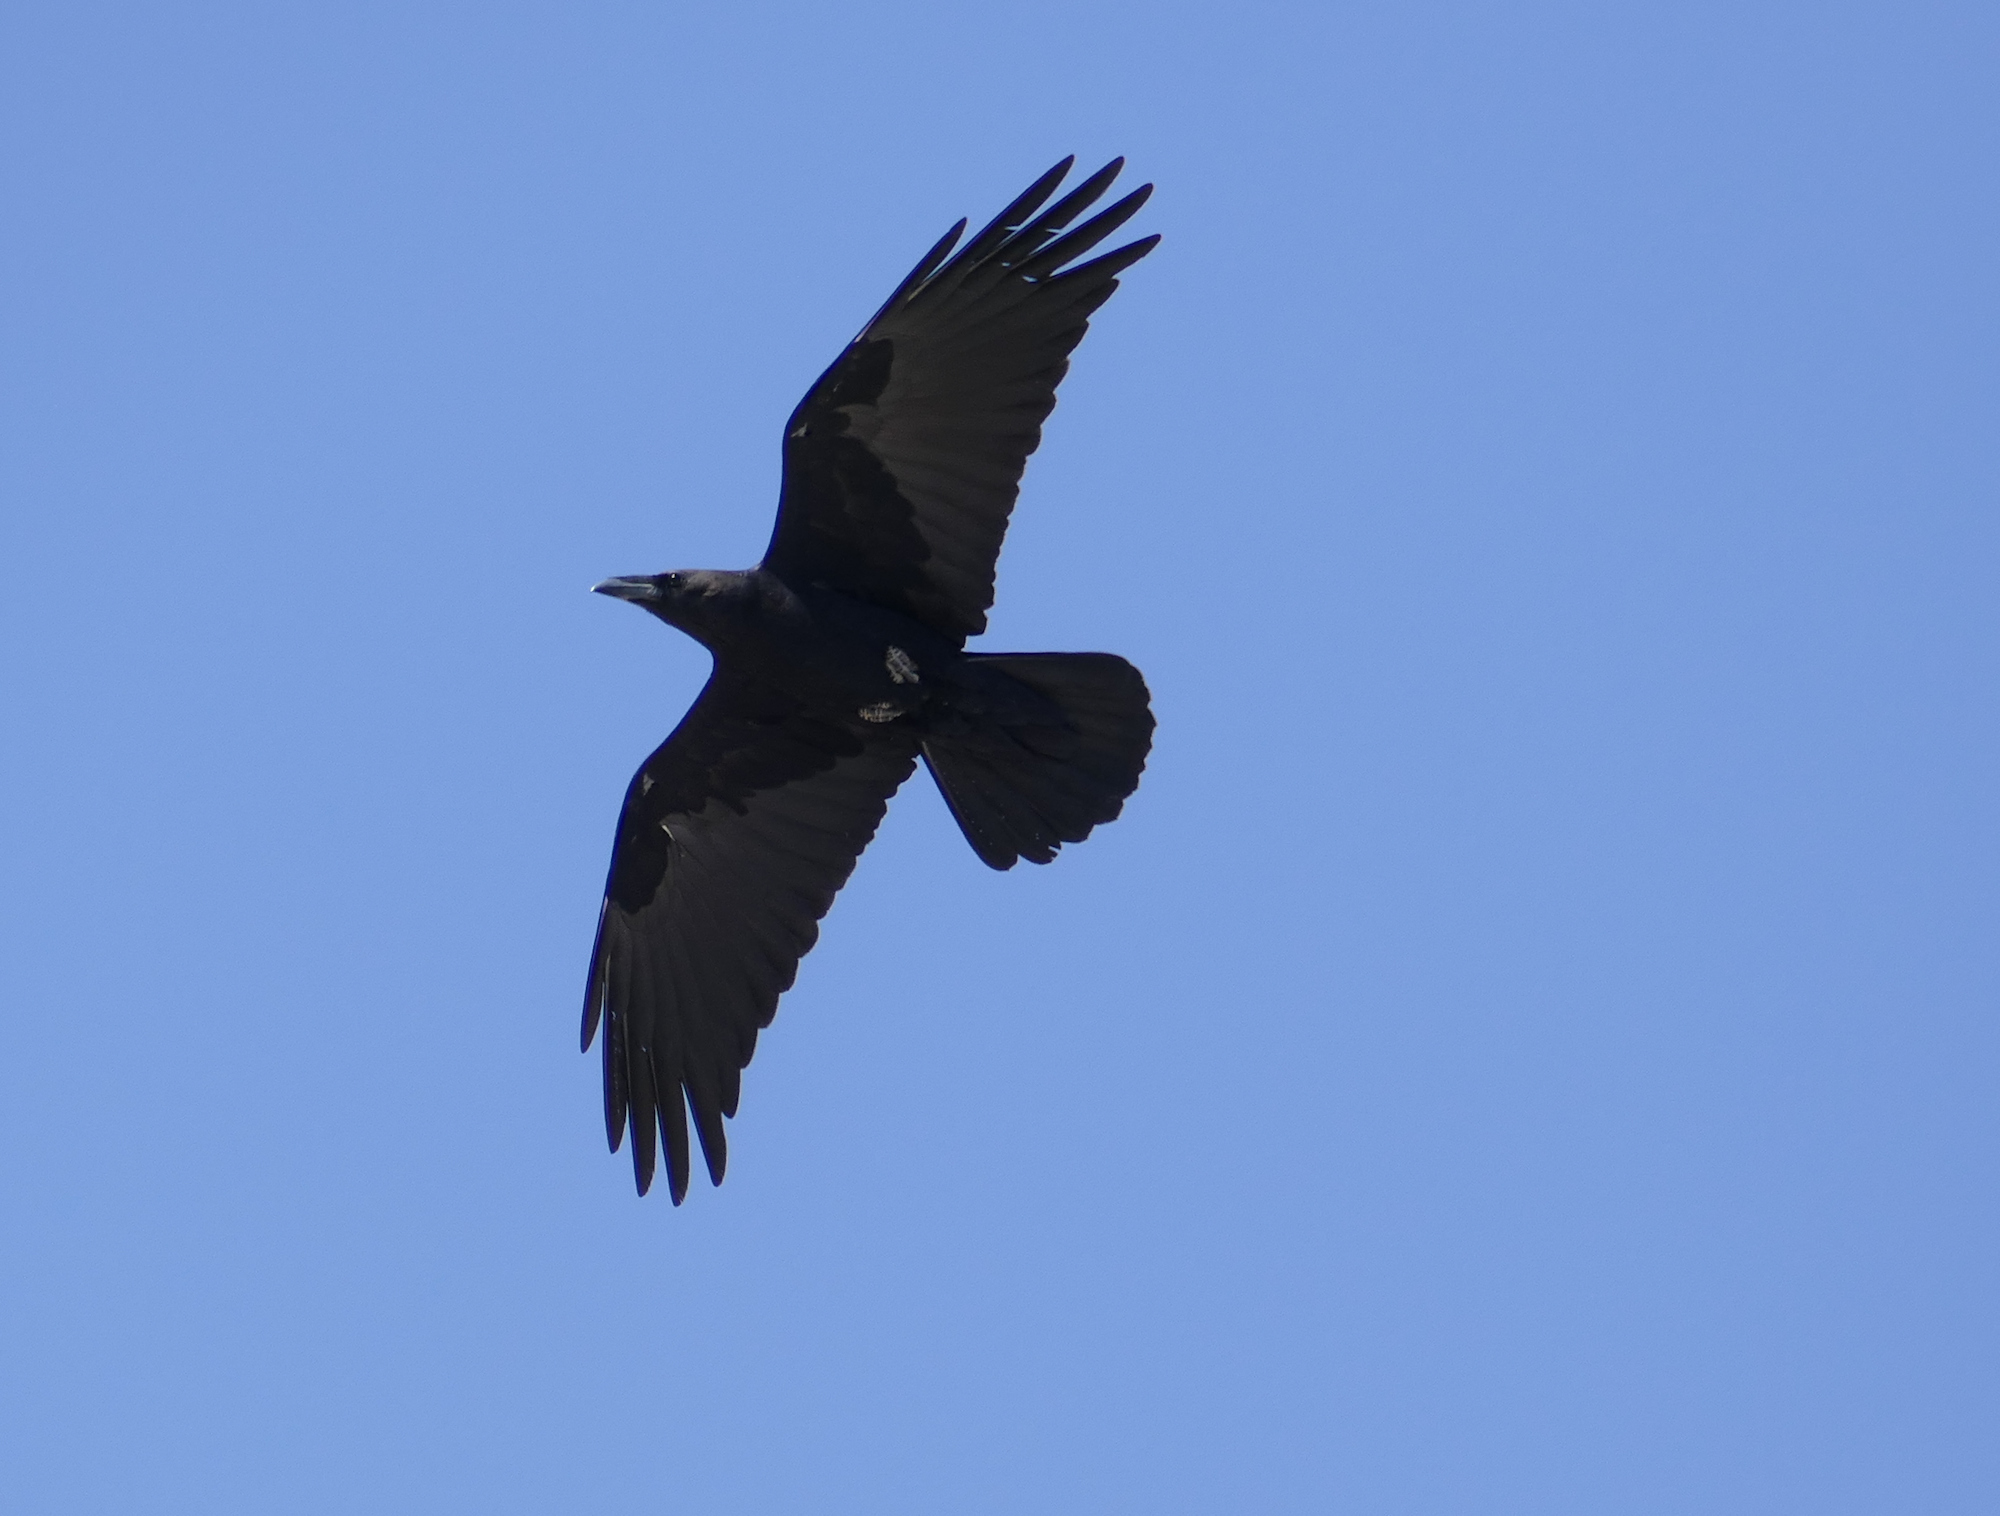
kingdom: Animalia
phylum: Chordata
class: Aves
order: Passeriformes
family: Corvidae
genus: Corvus
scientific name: Corvus cryptoleucus
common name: Chihuahuan raven
